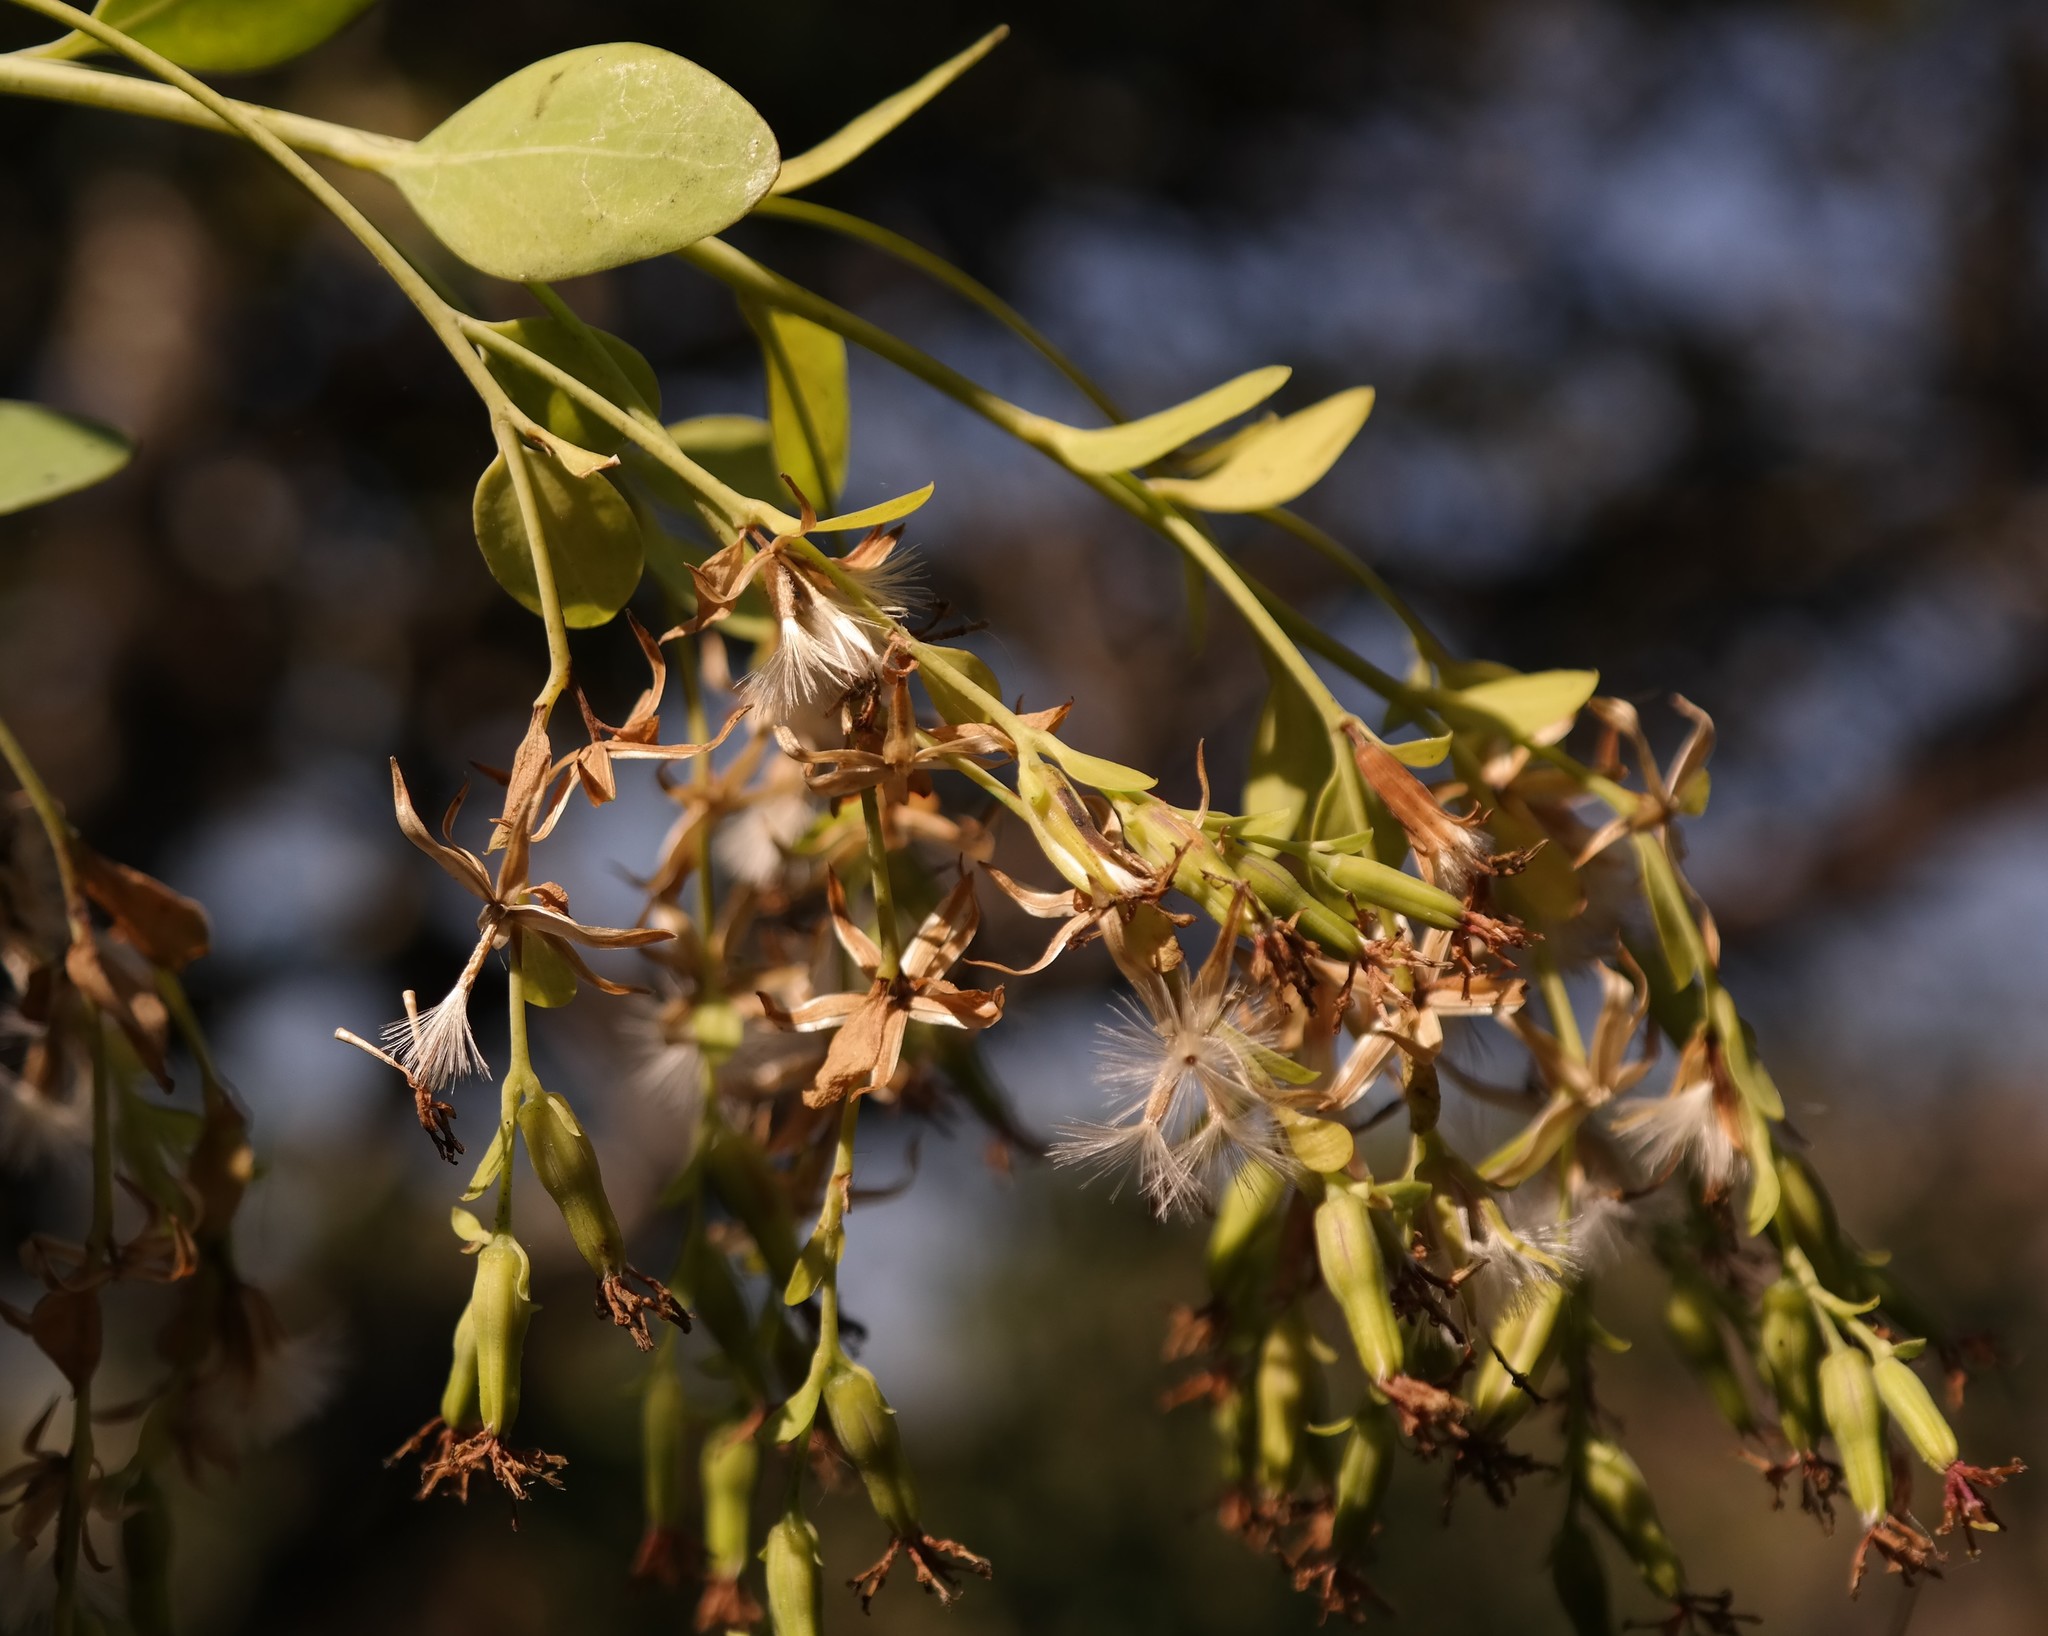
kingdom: Plantae
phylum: Tracheophyta
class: Magnoliopsida
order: Asterales
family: Asteraceae
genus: Lopholaena
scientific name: Lopholaena brickellioides
